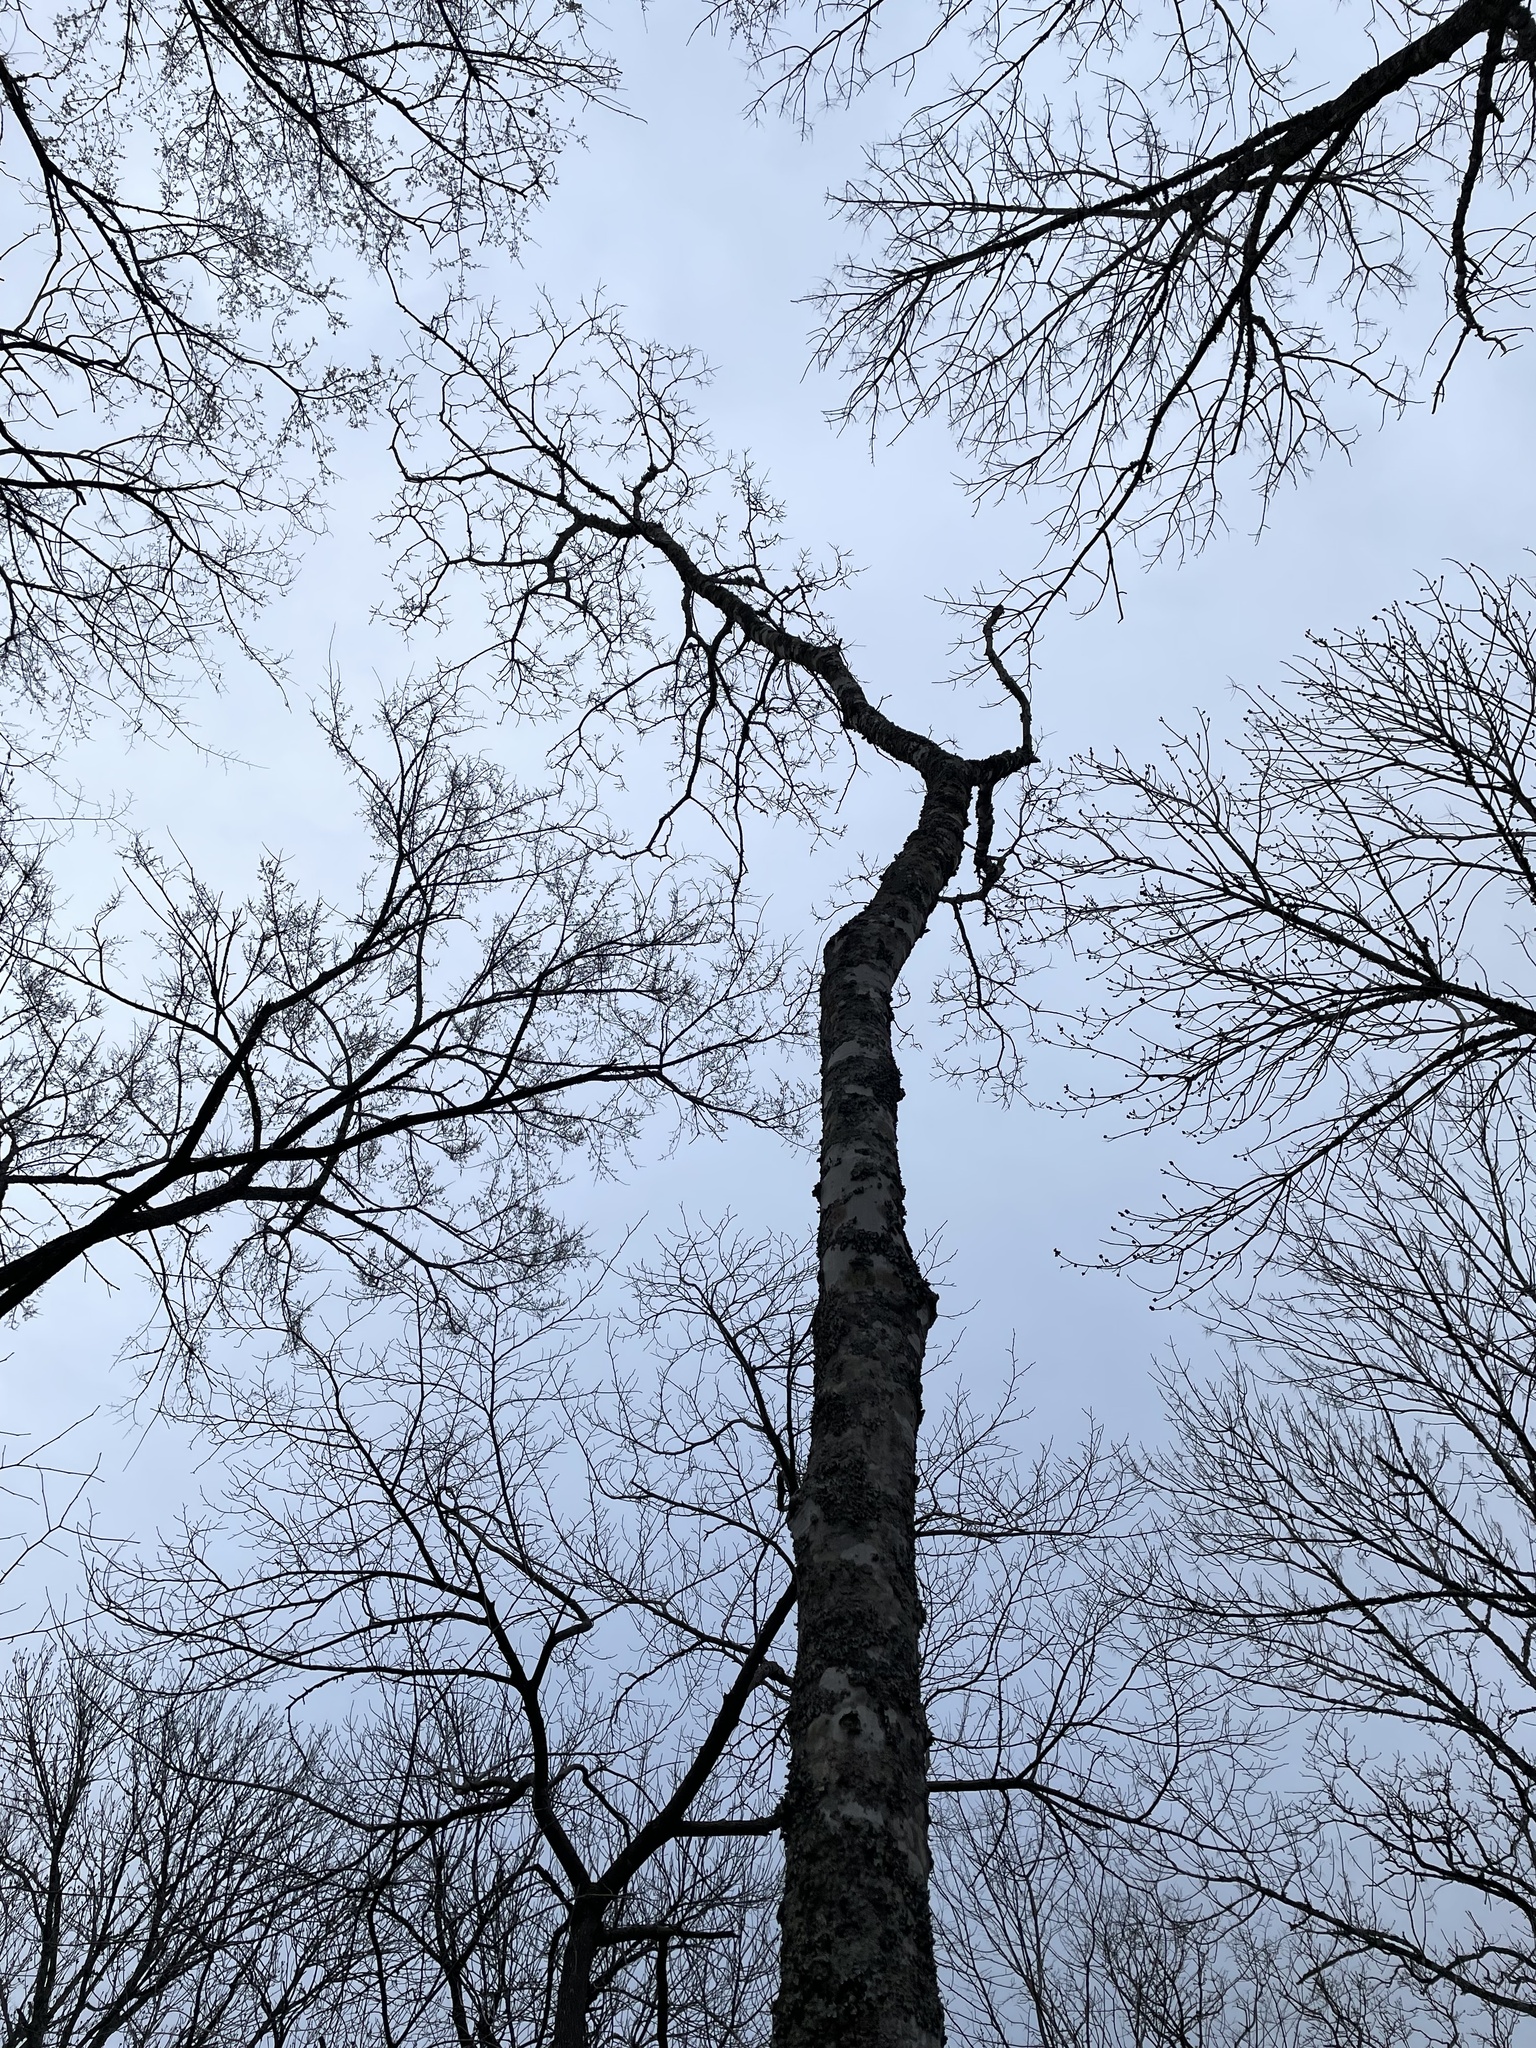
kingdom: Plantae
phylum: Tracheophyta
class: Magnoliopsida
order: Rosales
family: Cannabaceae
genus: Celtis
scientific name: Celtis laevigata
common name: Sugarberry
